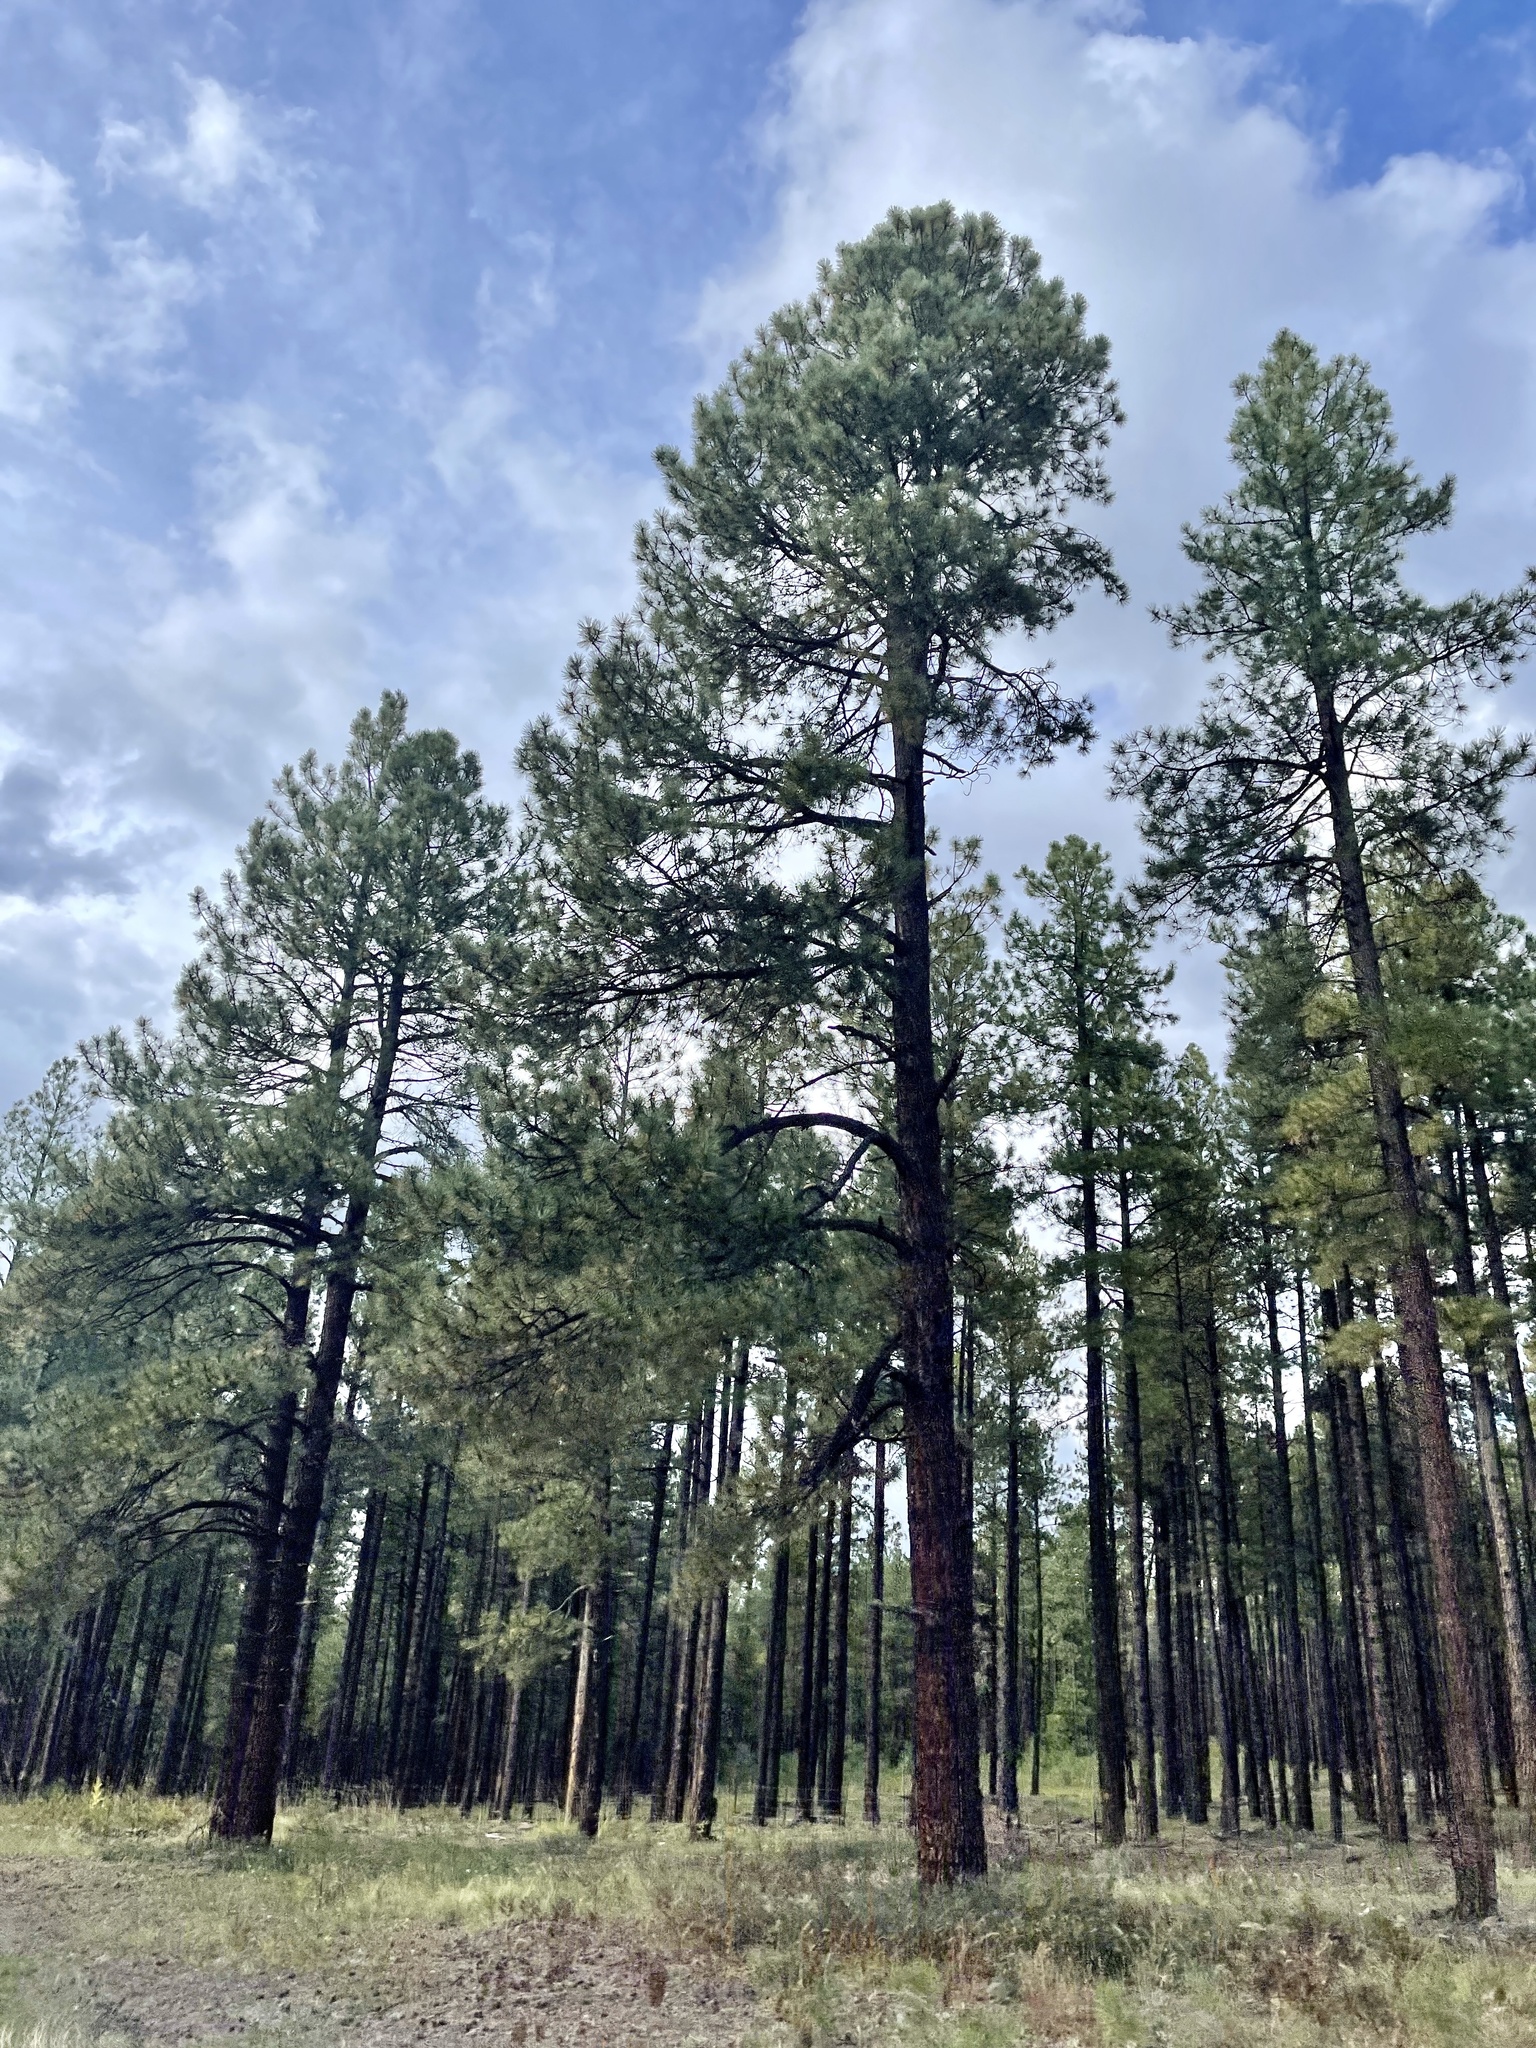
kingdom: Plantae
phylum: Tracheophyta
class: Pinopsida
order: Pinales
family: Pinaceae
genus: Pinus
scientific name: Pinus ponderosa
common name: Western yellow-pine
